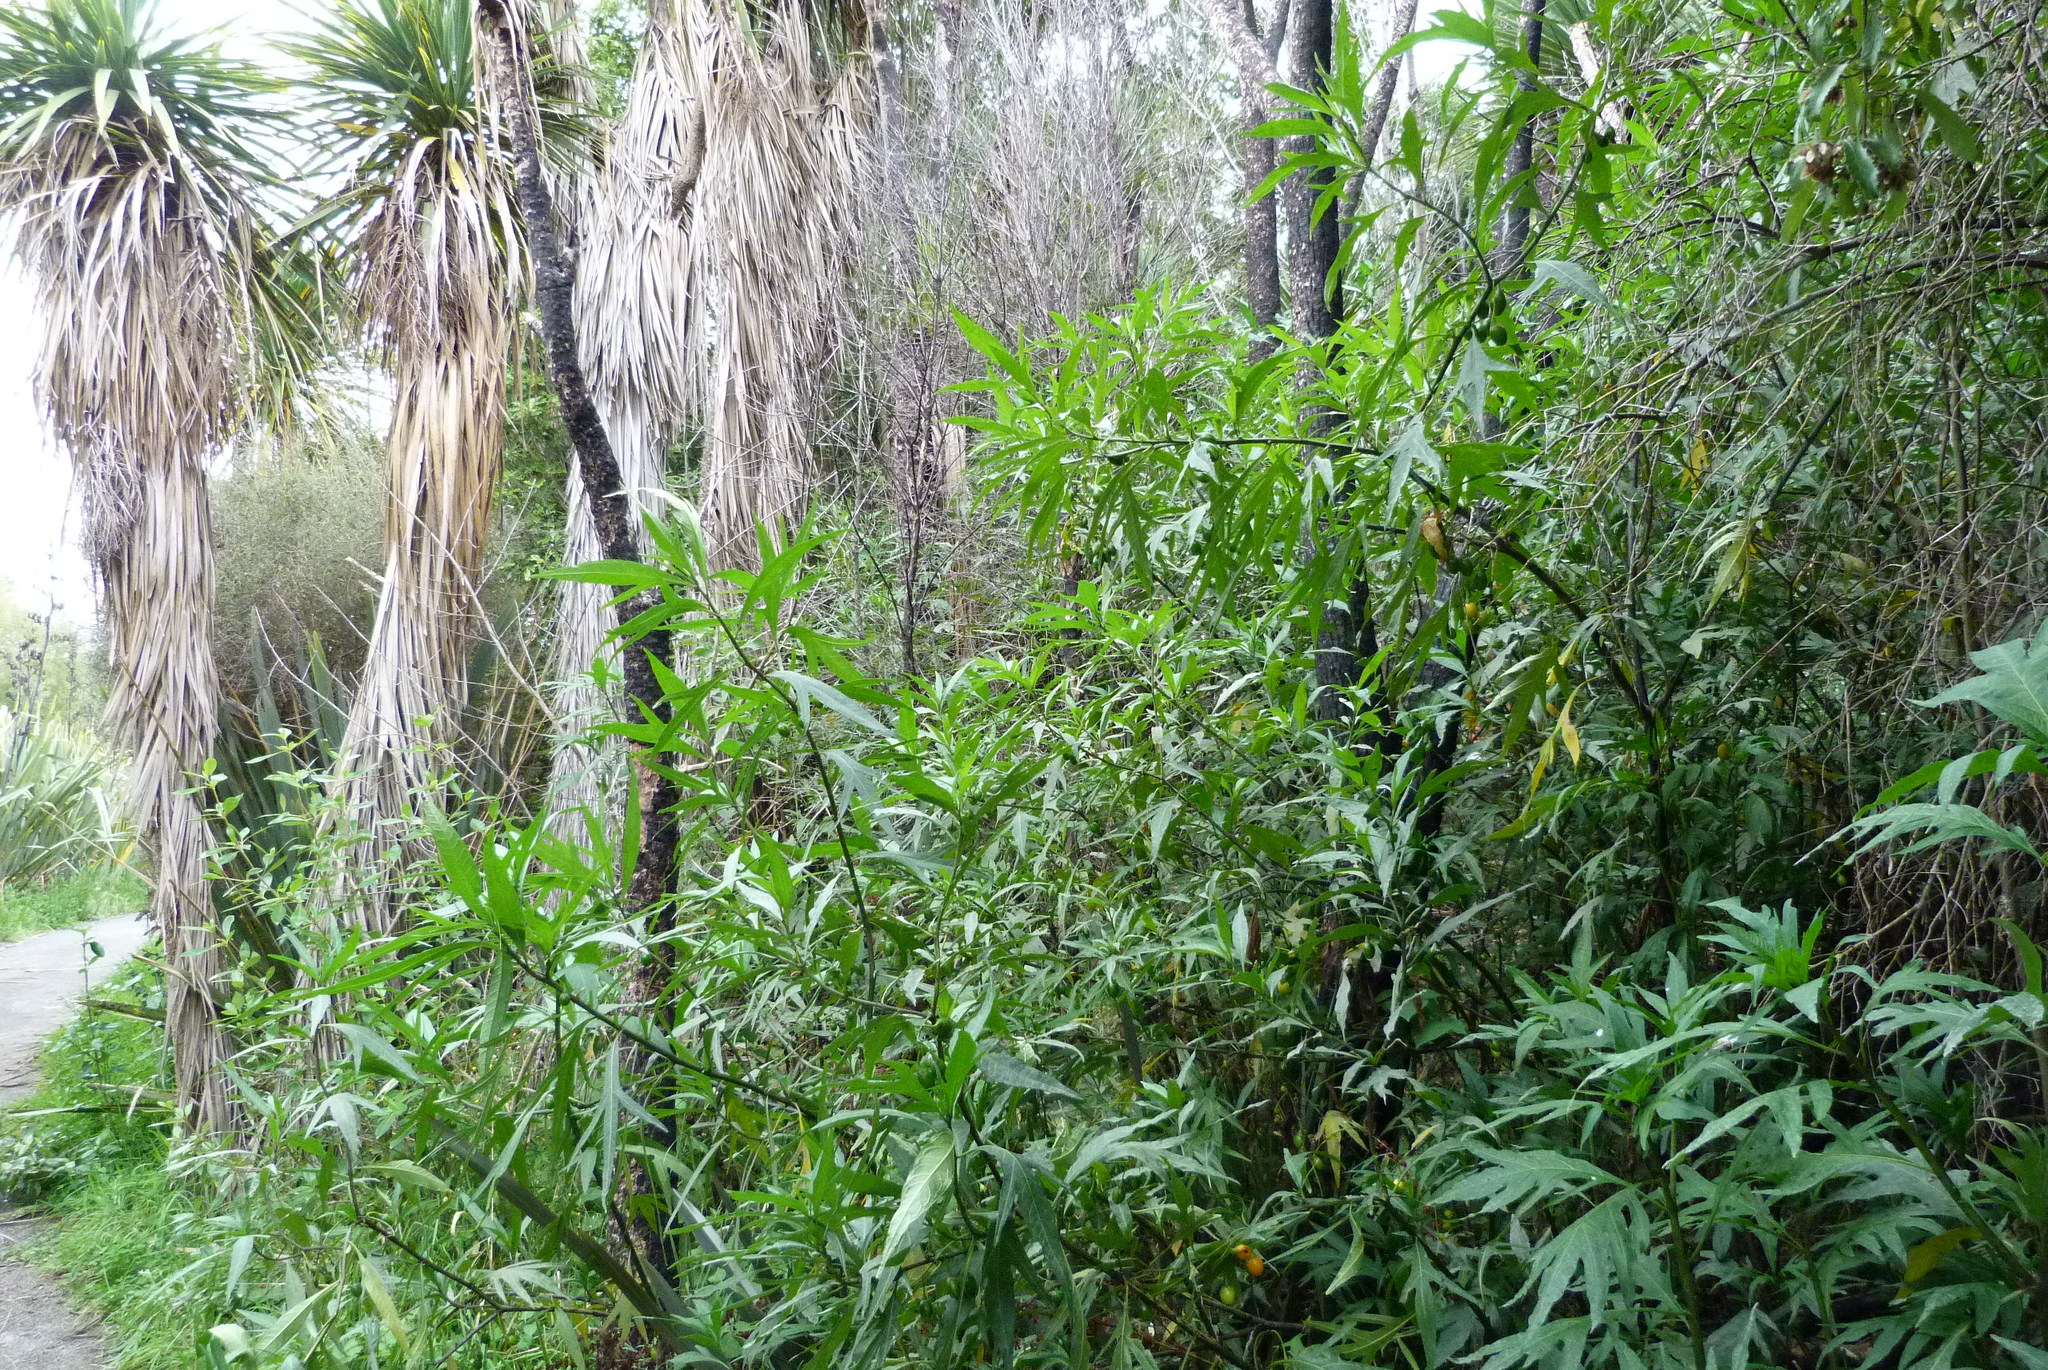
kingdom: Plantae
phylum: Tracheophyta
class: Magnoliopsida
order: Solanales
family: Solanaceae
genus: Solanum
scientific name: Solanum laciniatum
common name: Kangaroo-apple
